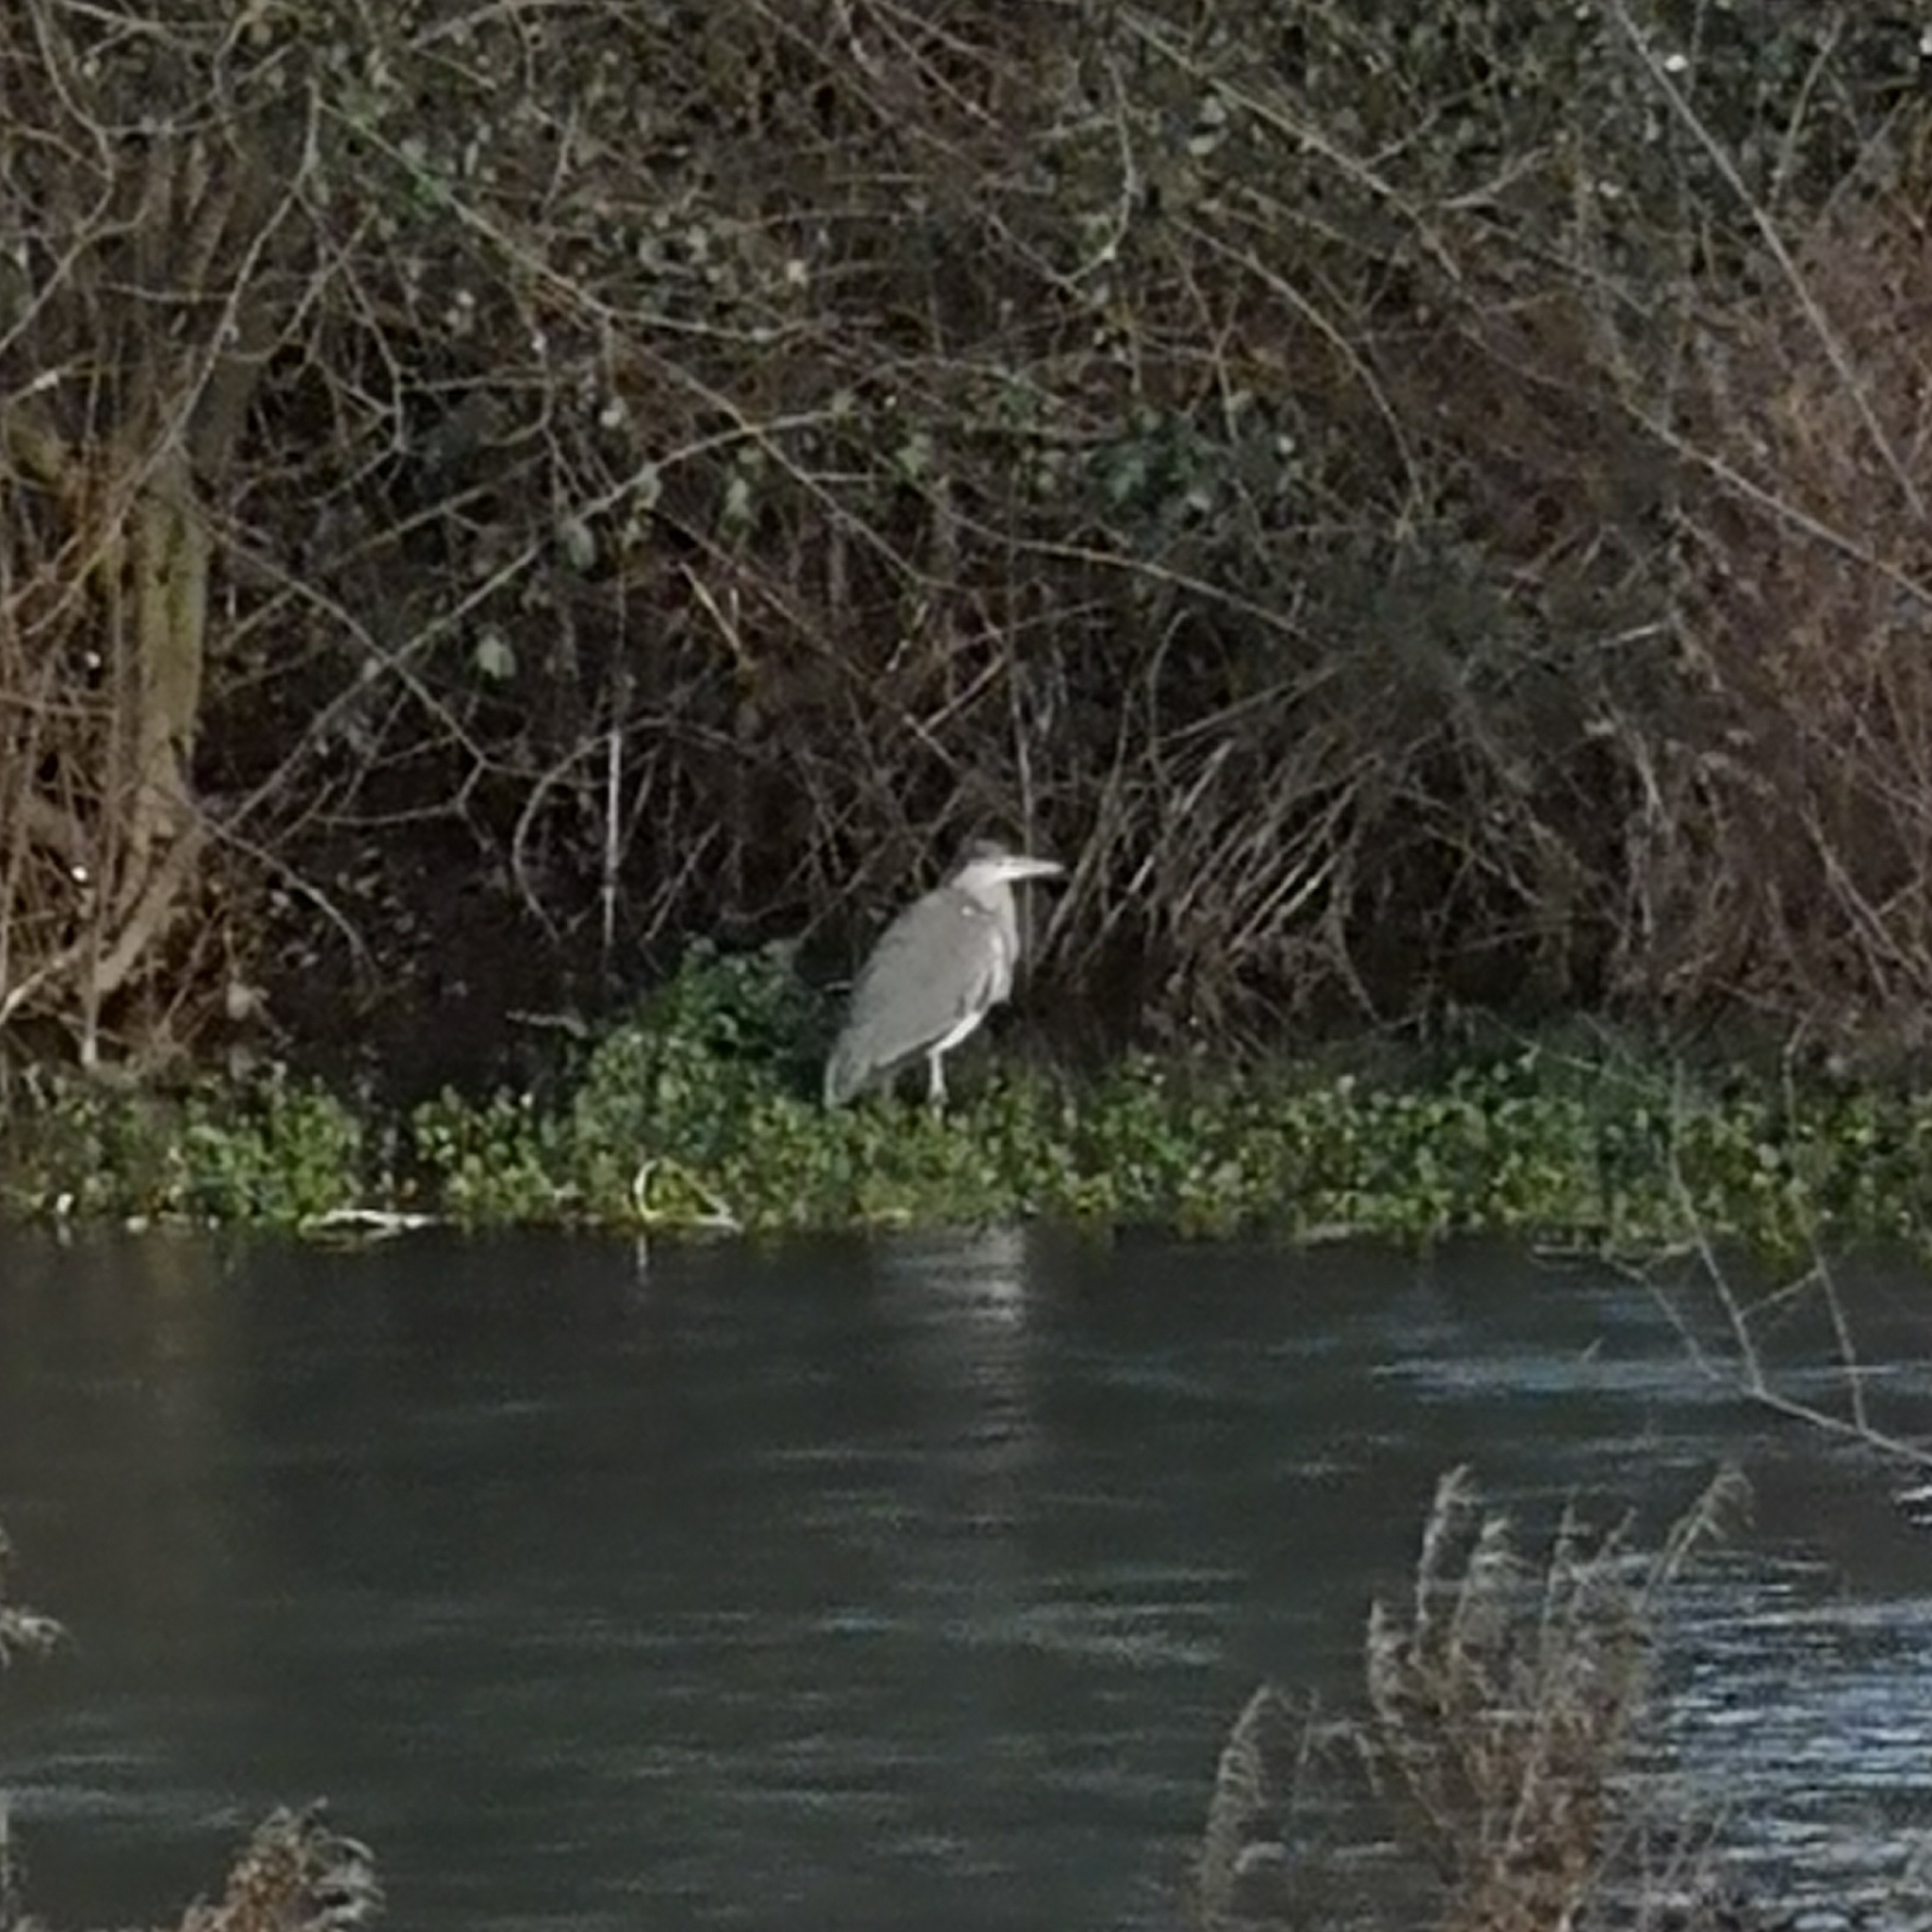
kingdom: Animalia
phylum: Chordata
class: Aves
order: Pelecaniformes
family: Ardeidae
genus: Ardea
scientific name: Ardea cinerea
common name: Grey heron
